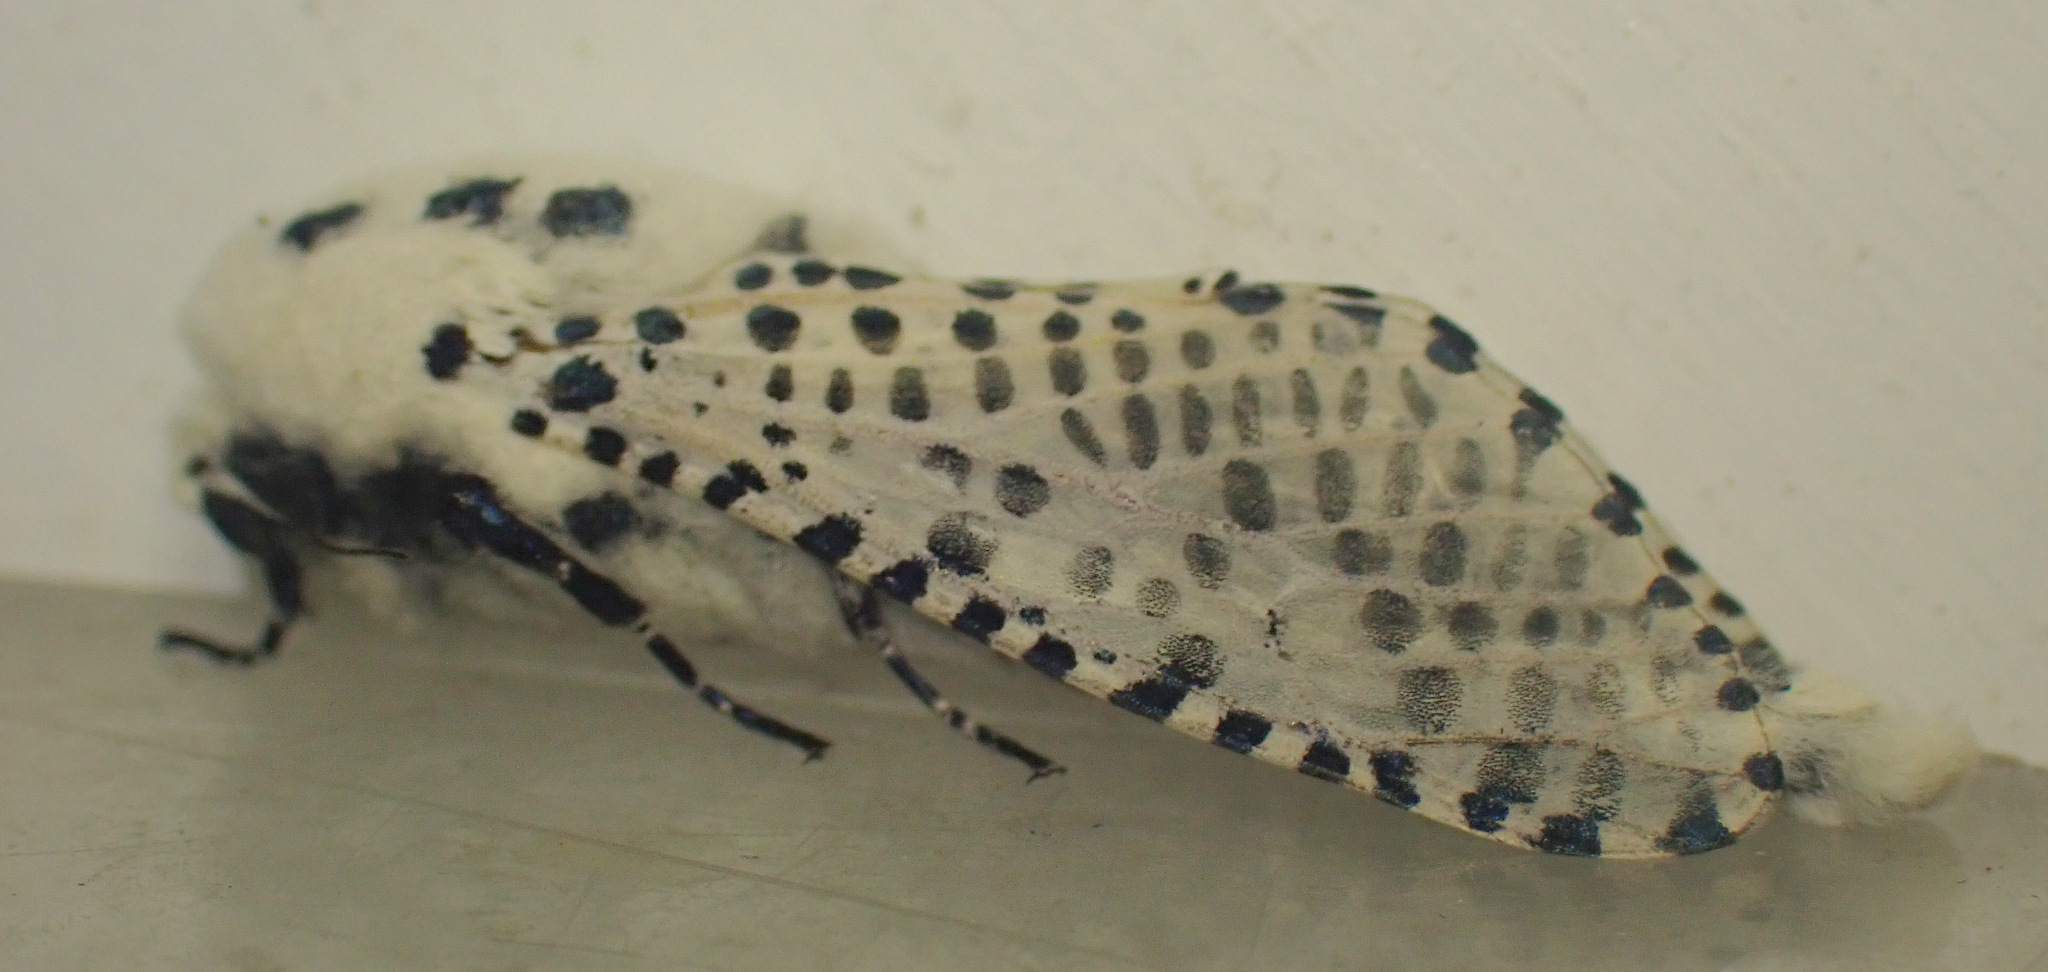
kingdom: Animalia
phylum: Arthropoda
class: Insecta
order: Lepidoptera
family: Cossidae
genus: Zeuzera
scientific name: Zeuzera pyrina
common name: Leopard moth
